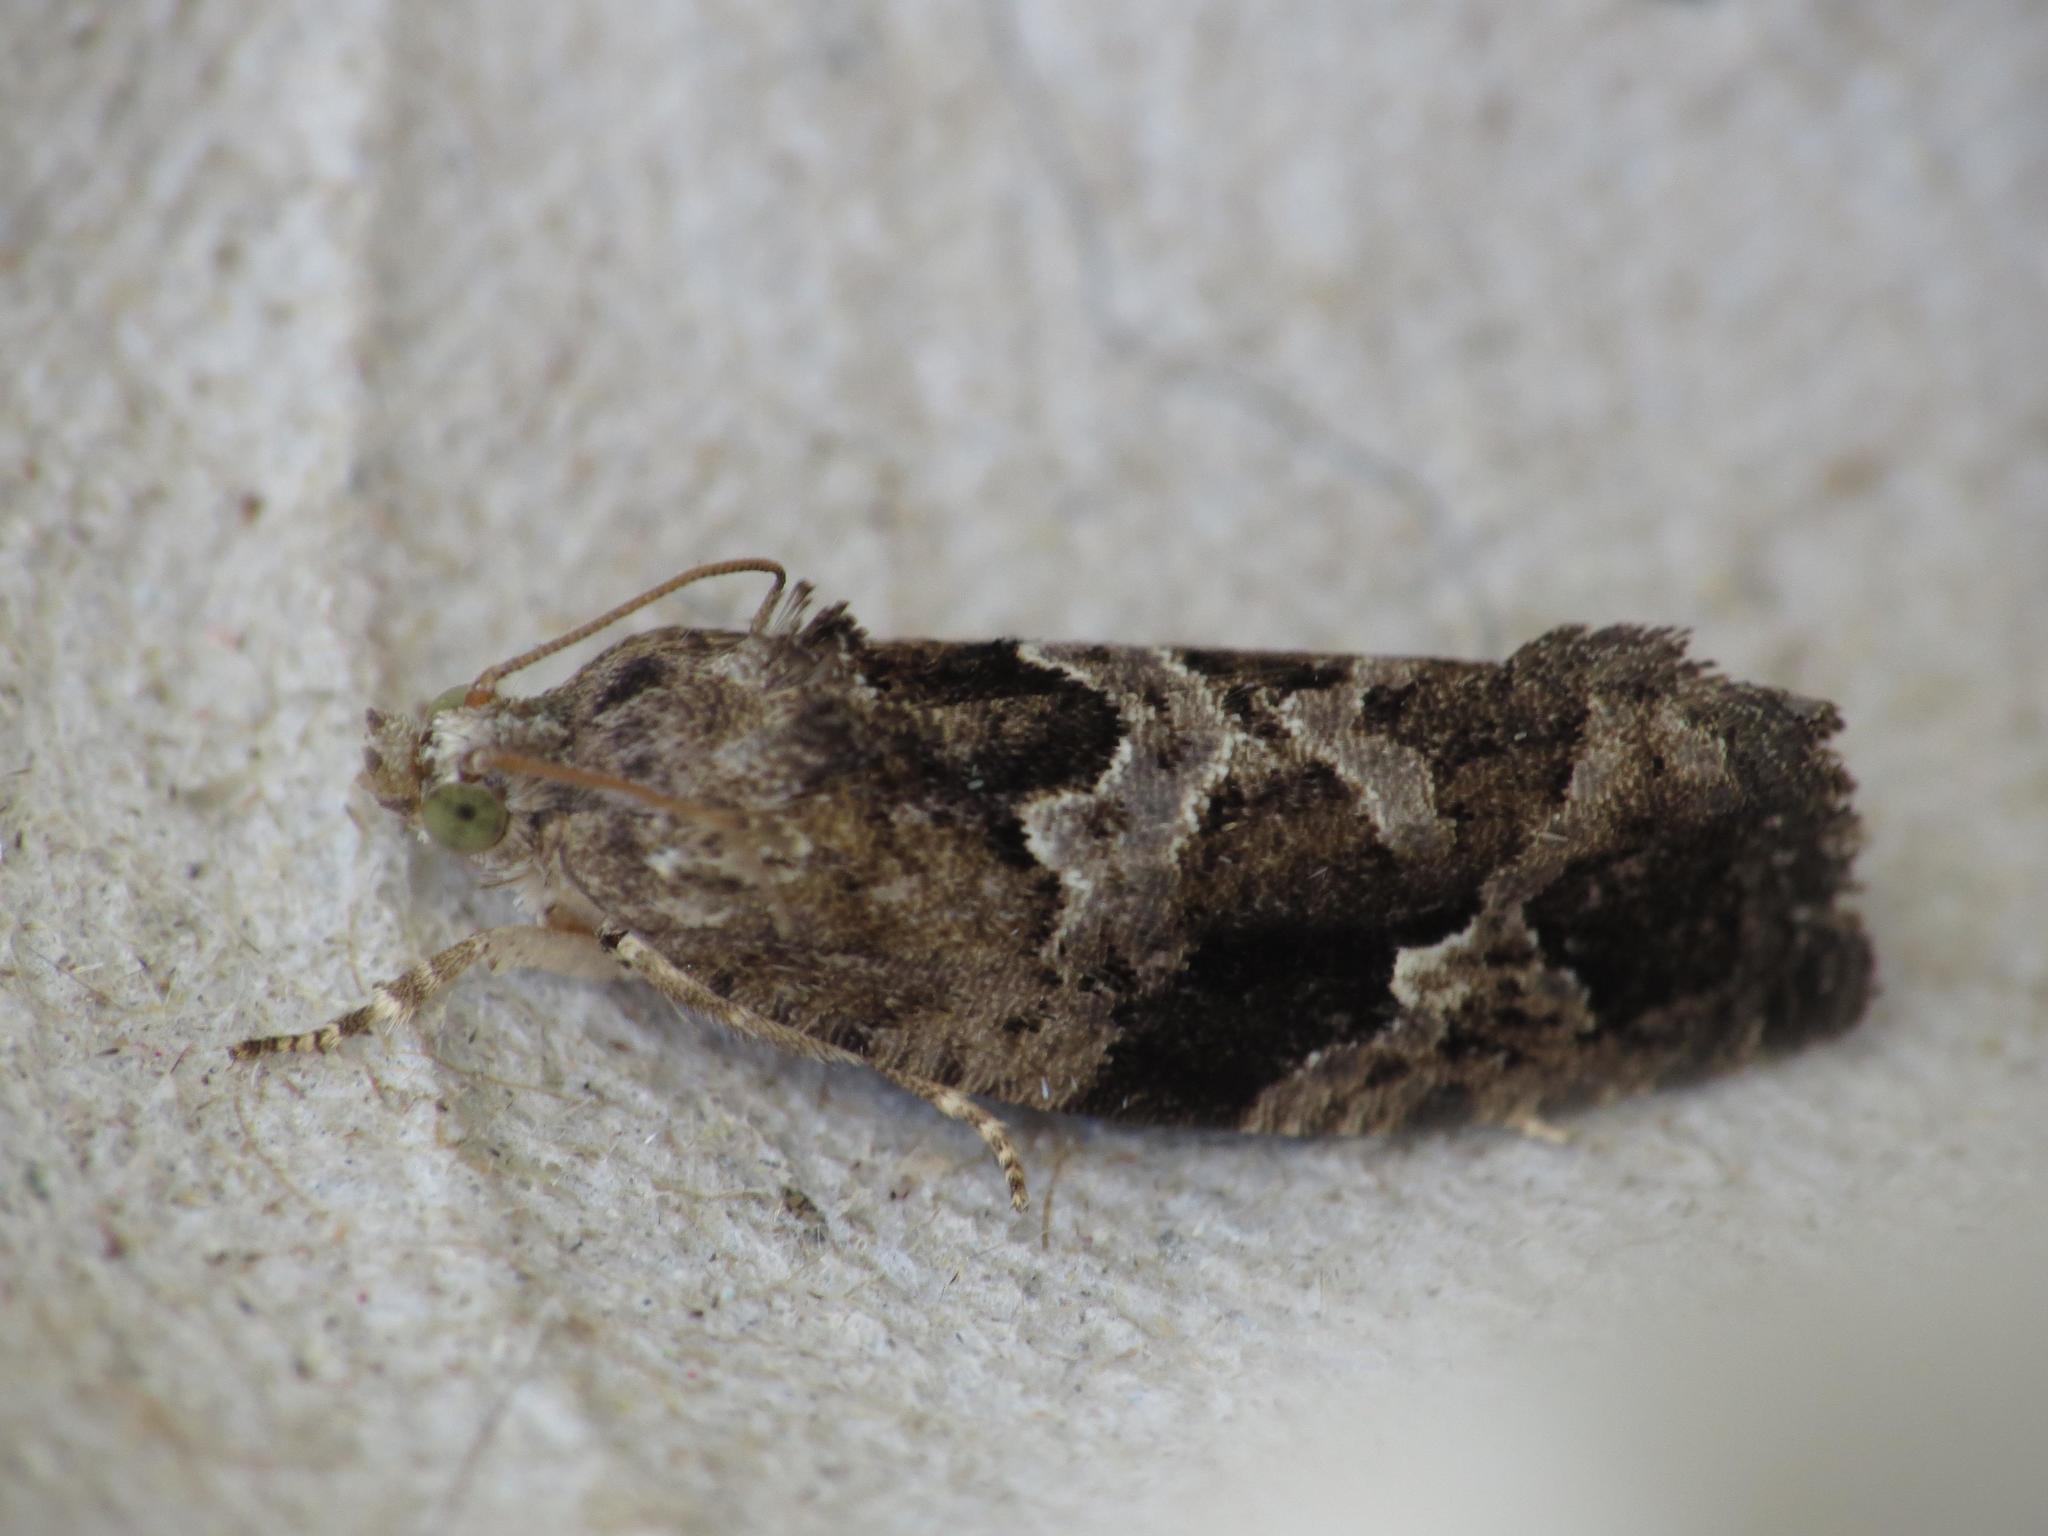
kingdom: Animalia
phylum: Arthropoda
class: Insecta
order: Lepidoptera
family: Tortricidae
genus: Eudemis
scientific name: Eudemis porphyrana
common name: Apple marble
